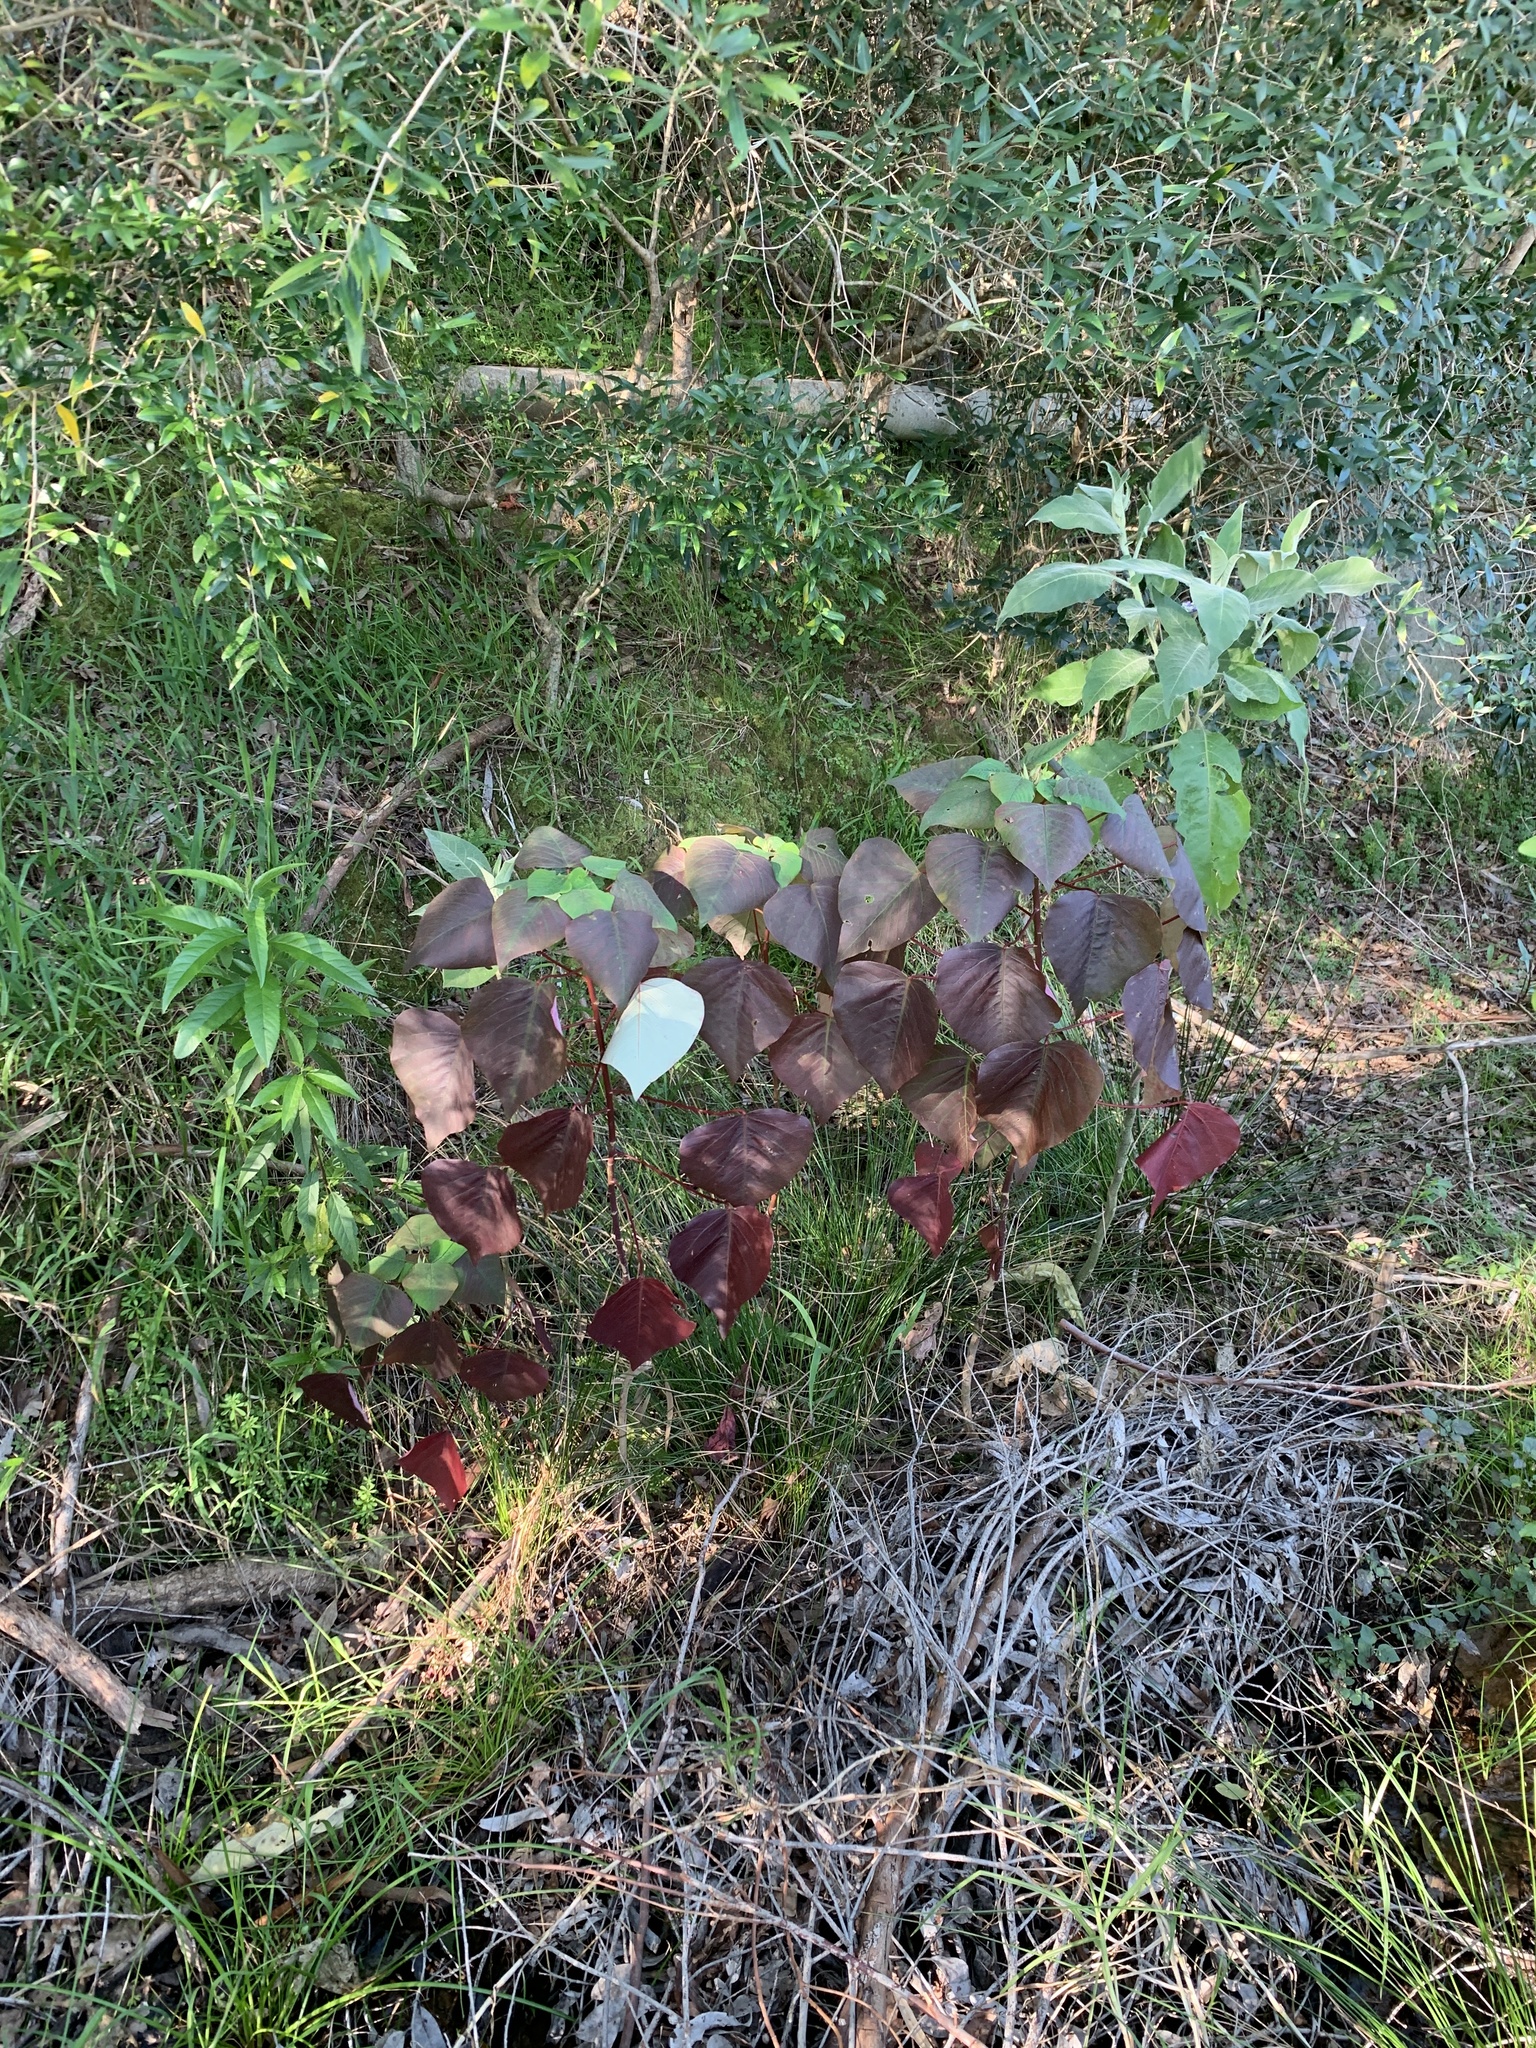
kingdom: Plantae
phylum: Tracheophyta
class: Magnoliopsida
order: Malpighiales
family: Euphorbiaceae
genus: Homalanthus
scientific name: Homalanthus populifolius
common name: Queensland poplar
